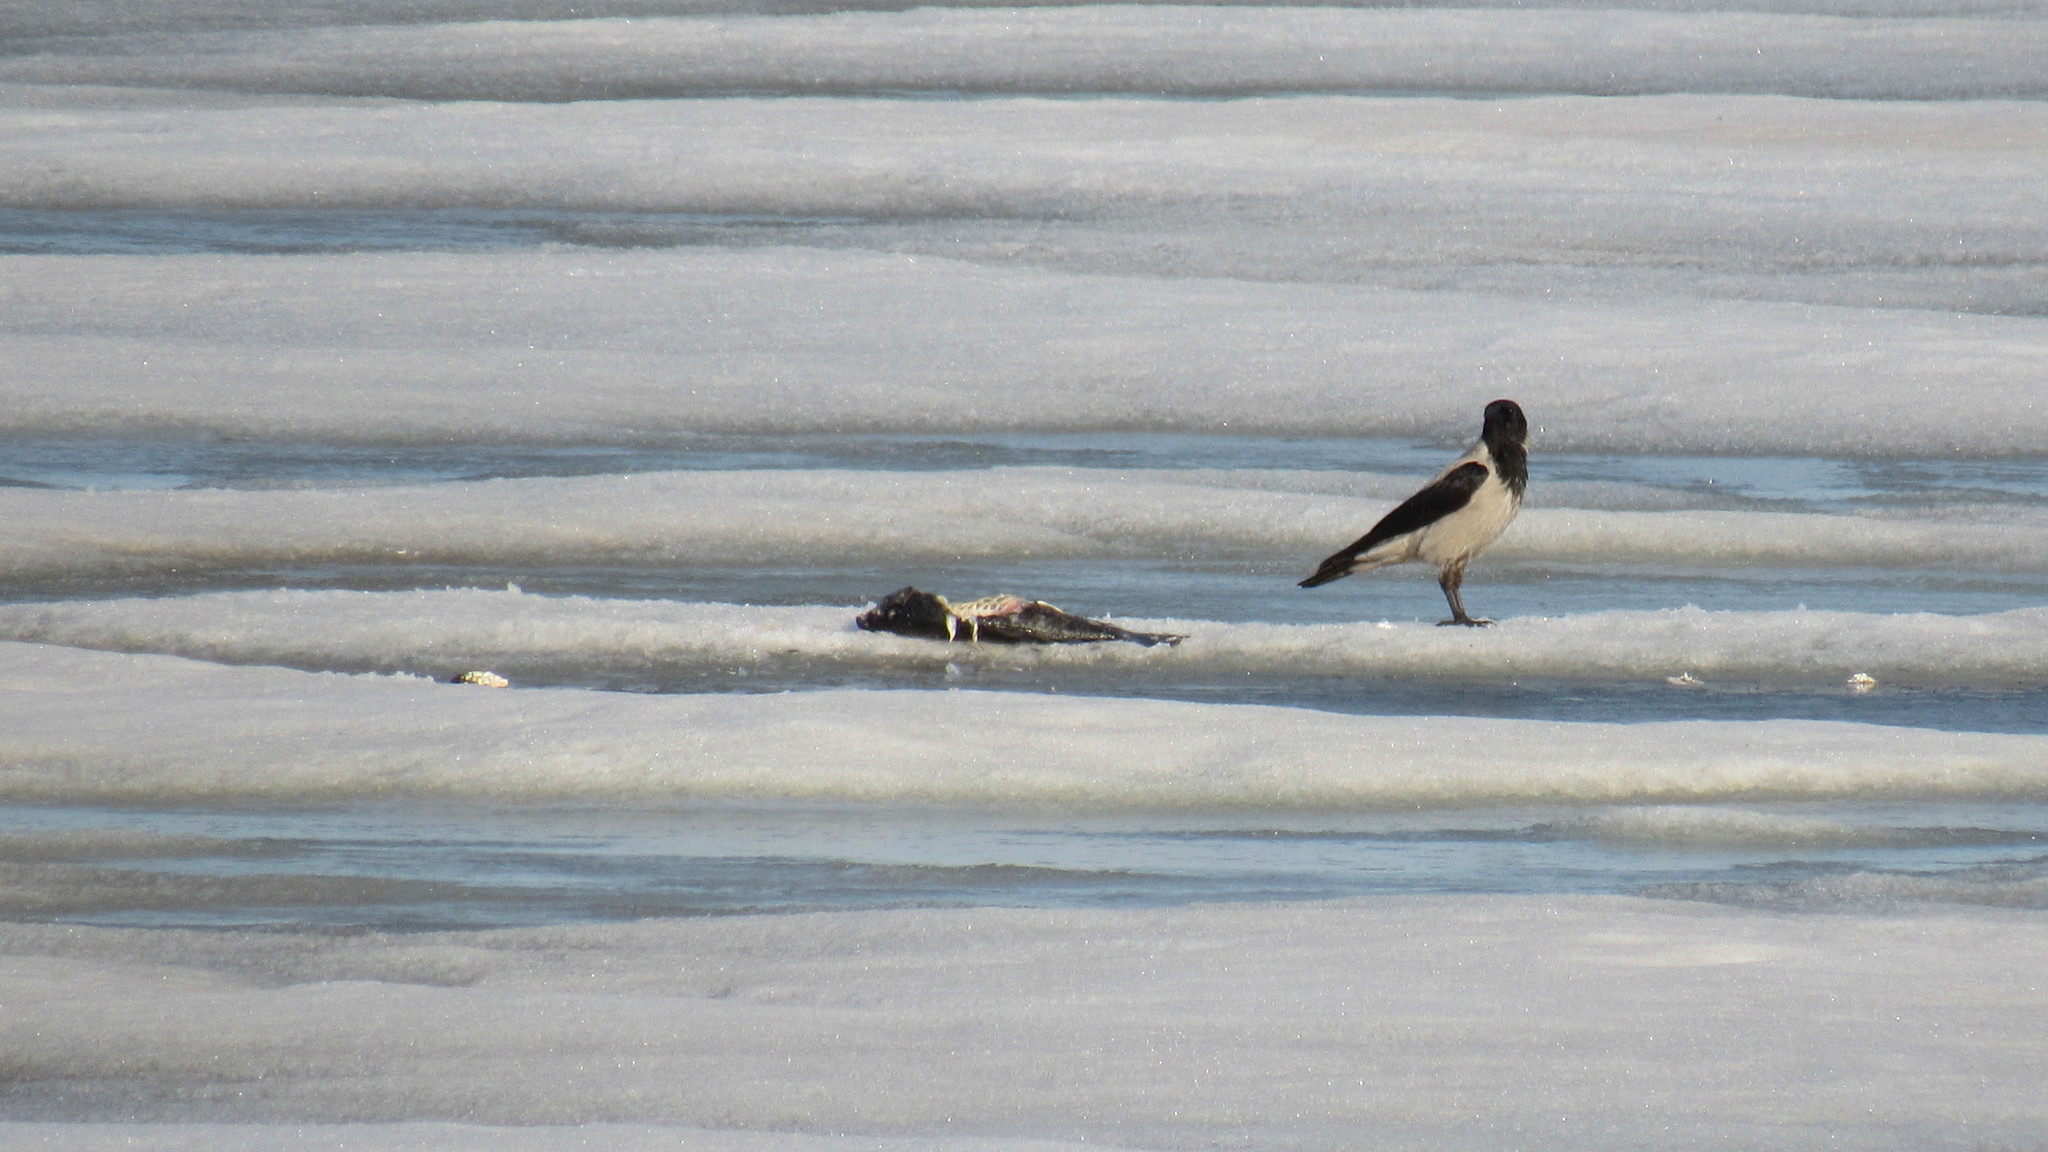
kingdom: Animalia
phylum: Chordata
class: Aves
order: Passeriformes
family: Corvidae
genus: Corvus
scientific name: Corvus cornix
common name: Hooded crow
